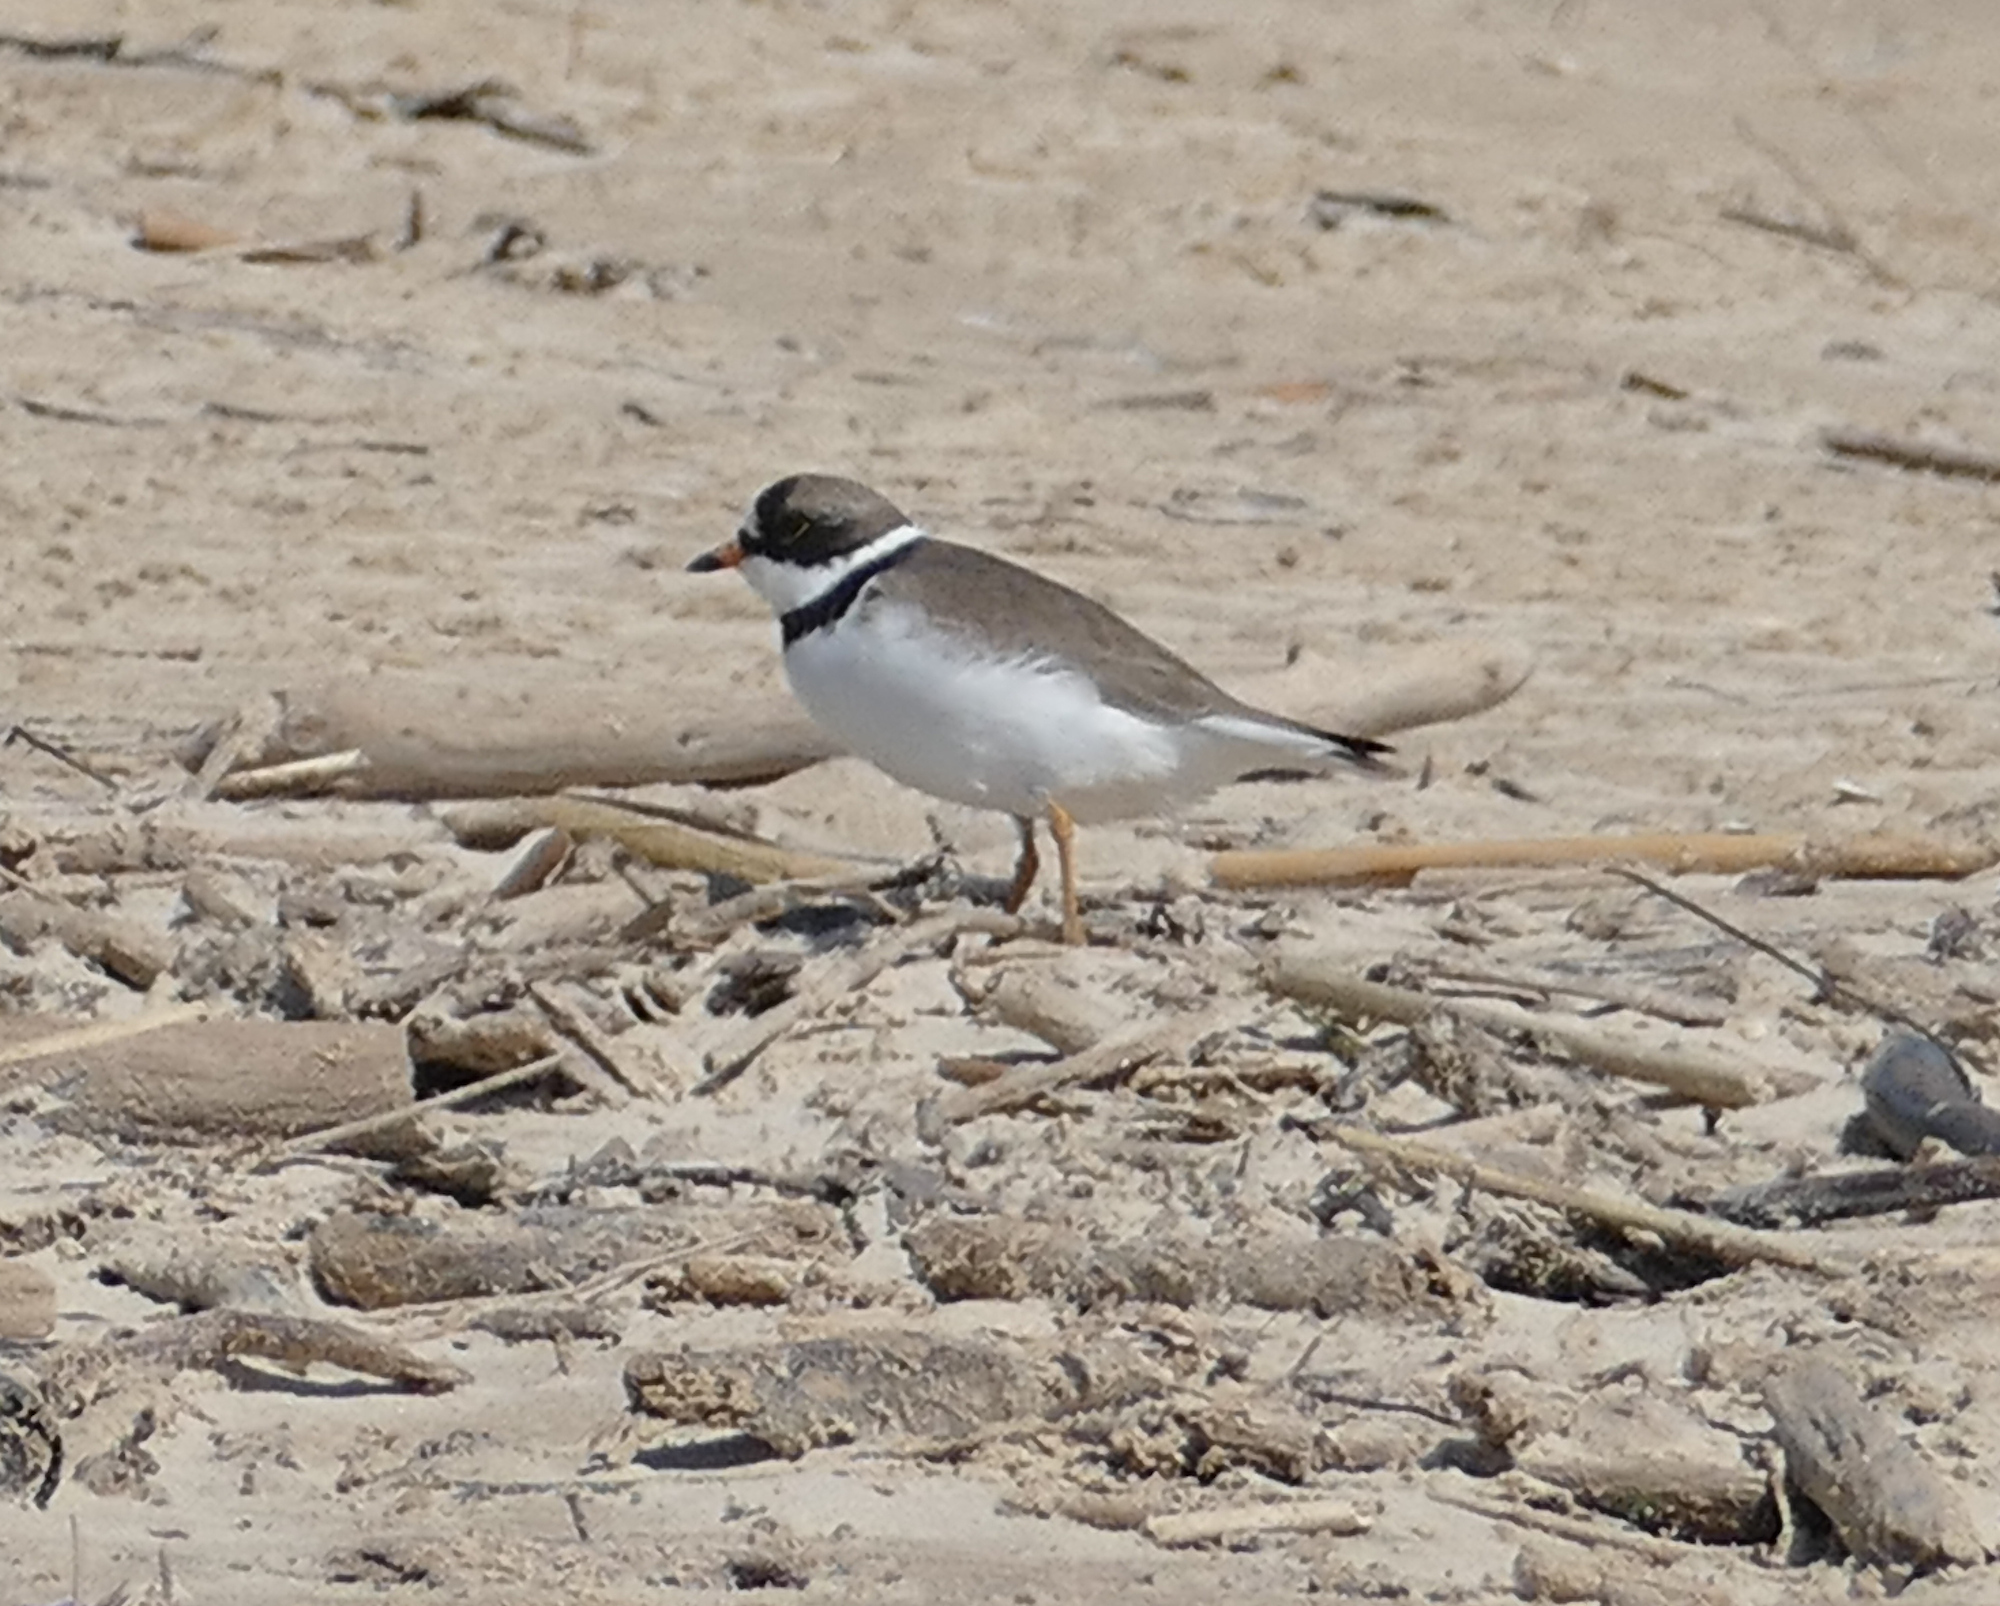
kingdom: Animalia
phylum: Chordata
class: Aves
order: Charadriiformes
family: Charadriidae
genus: Charadrius
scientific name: Charadrius semipalmatus
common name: Semipalmated plover
